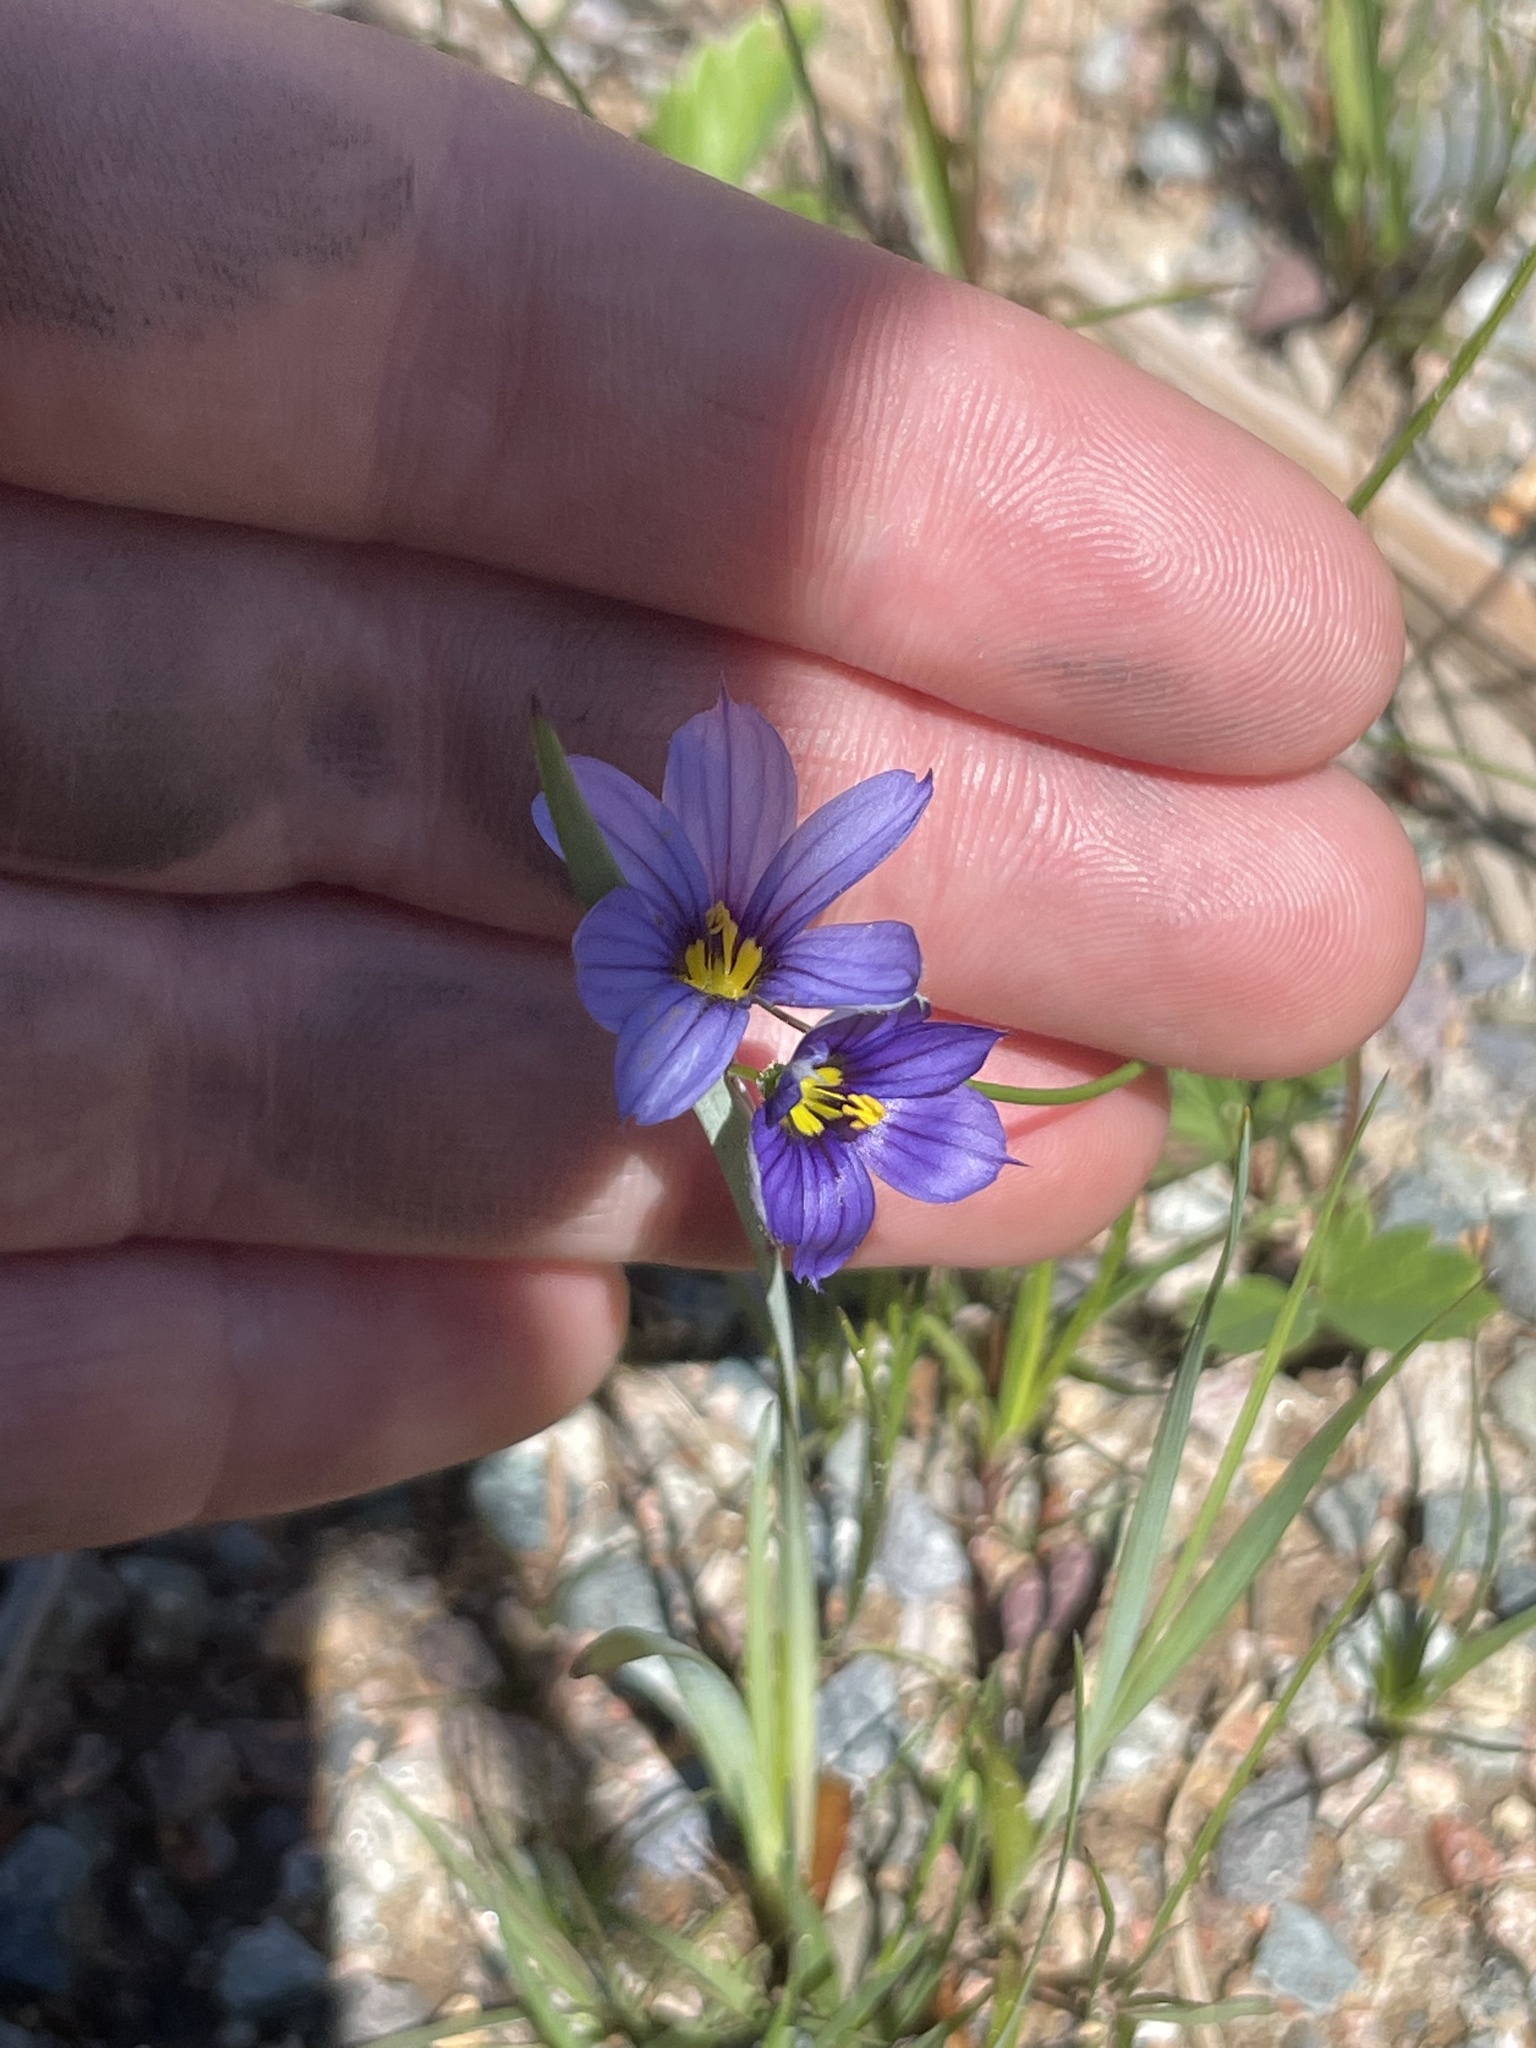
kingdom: Plantae
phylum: Tracheophyta
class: Liliopsida
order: Asparagales
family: Iridaceae
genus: Sisyrinchium
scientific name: Sisyrinchium montanum
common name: American blue-eyed-grass
